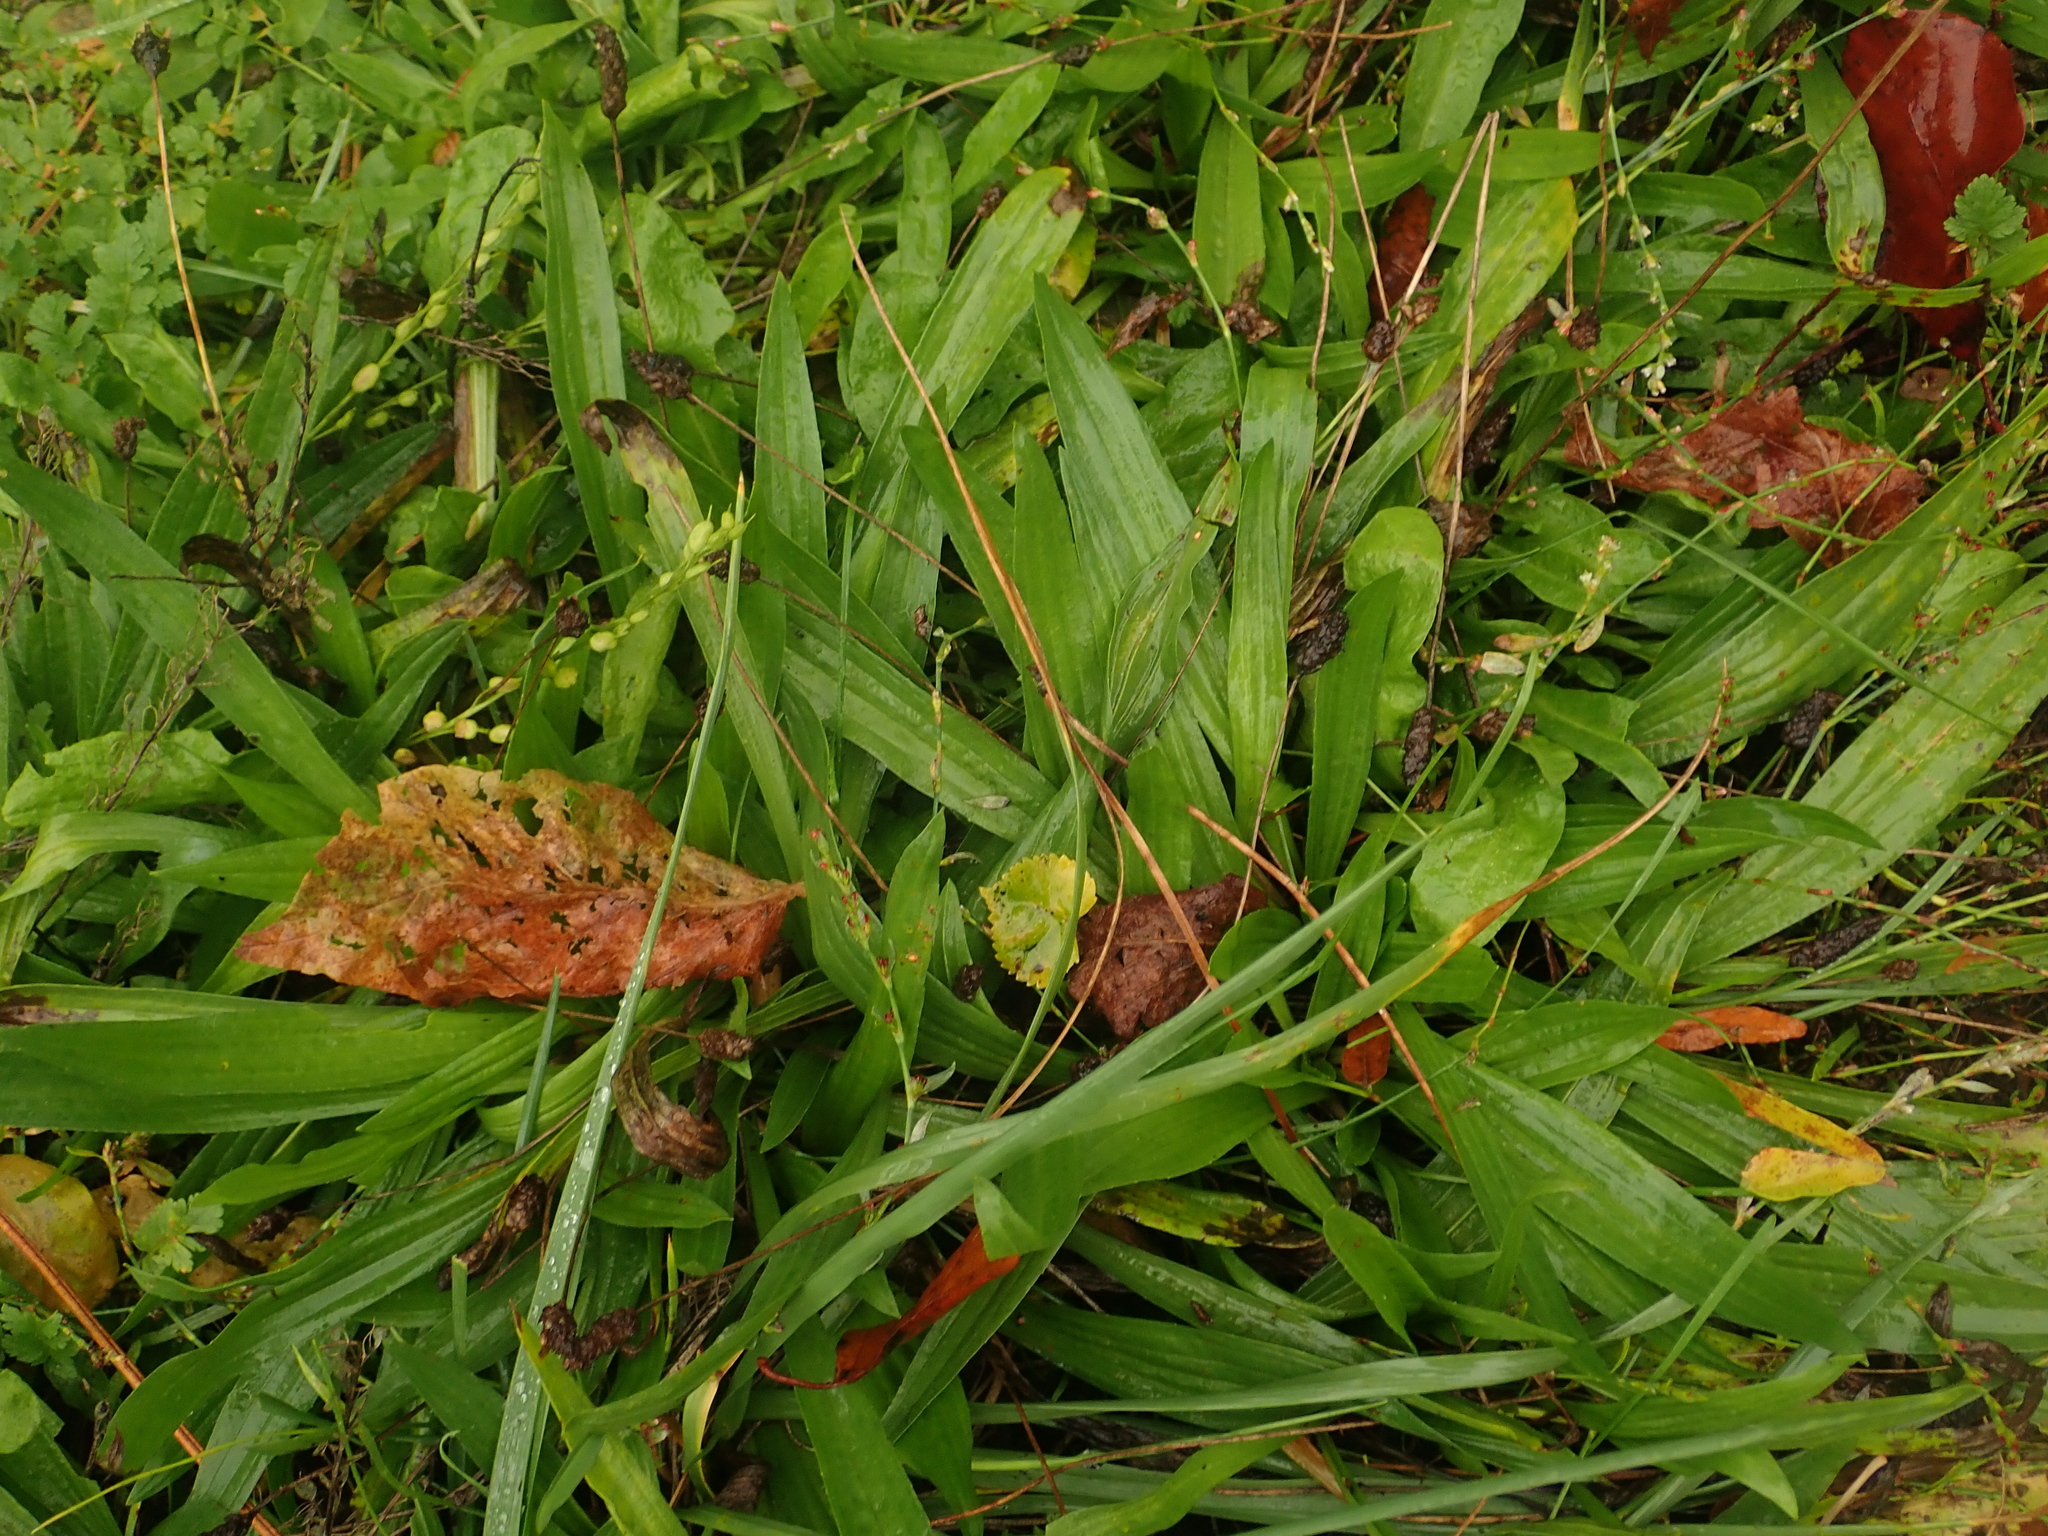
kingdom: Plantae
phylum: Tracheophyta
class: Magnoliopsida
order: Lamiales
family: Plantaginaceae
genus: Plantago
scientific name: Plantago lanceolata
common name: Ribwort plantain
